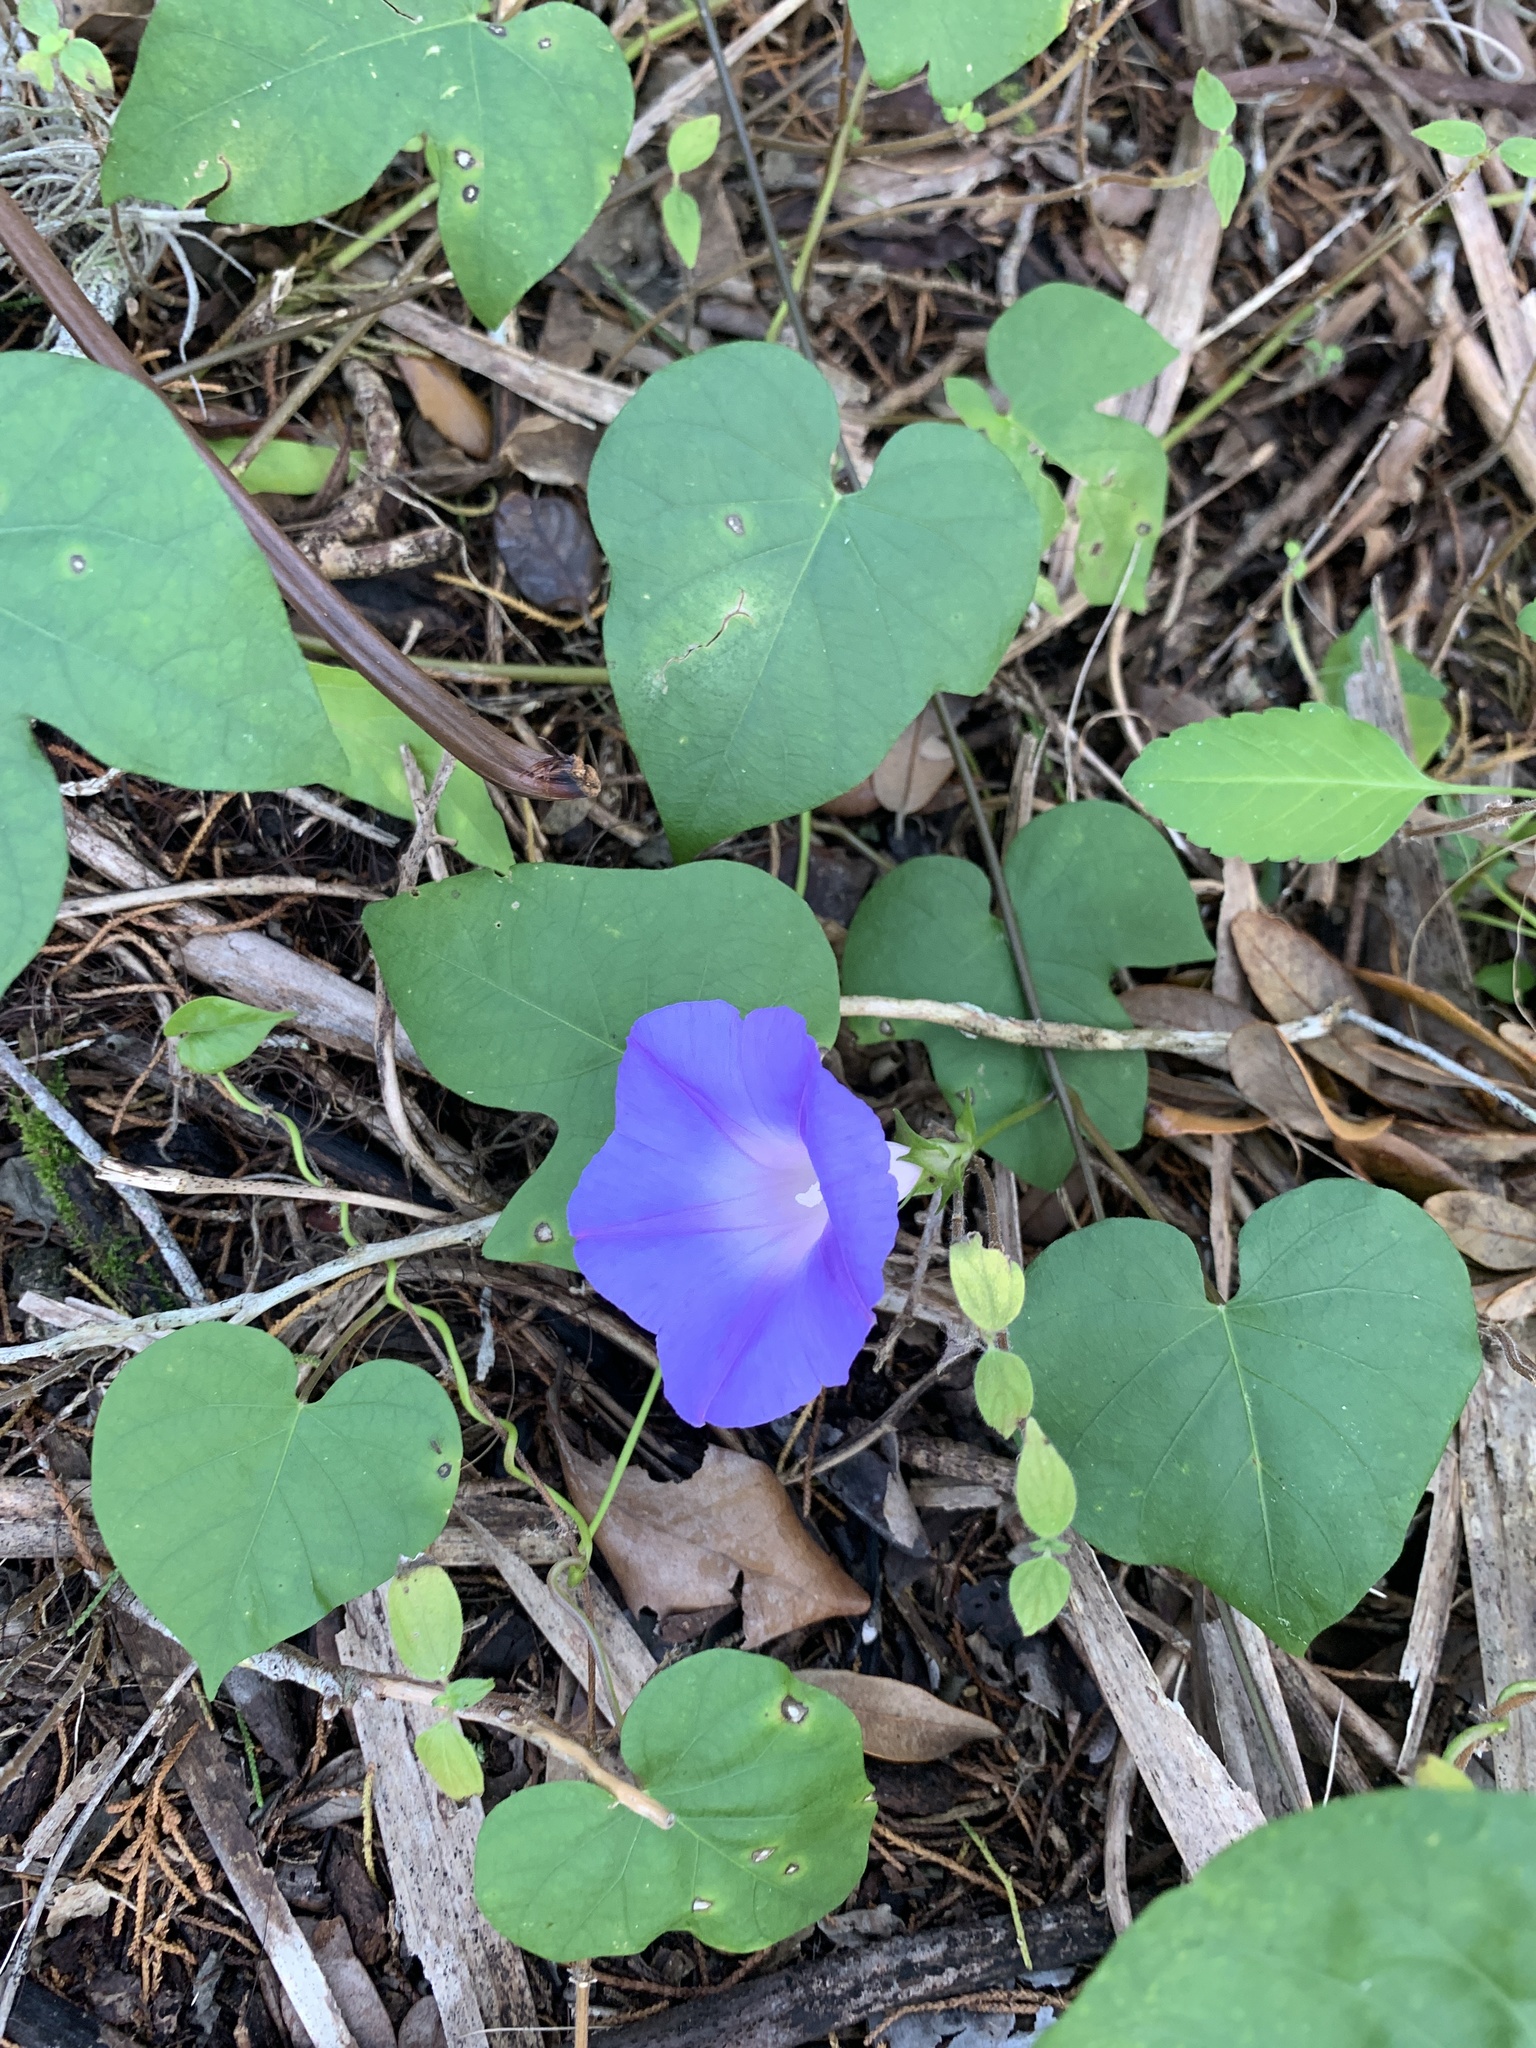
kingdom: Plantae
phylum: Tracheophyta
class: Magnoliopsida
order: Solanales
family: Convolvulaceae
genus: Ipomoea
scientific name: Ipomoea indica
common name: Blue dawnflower
